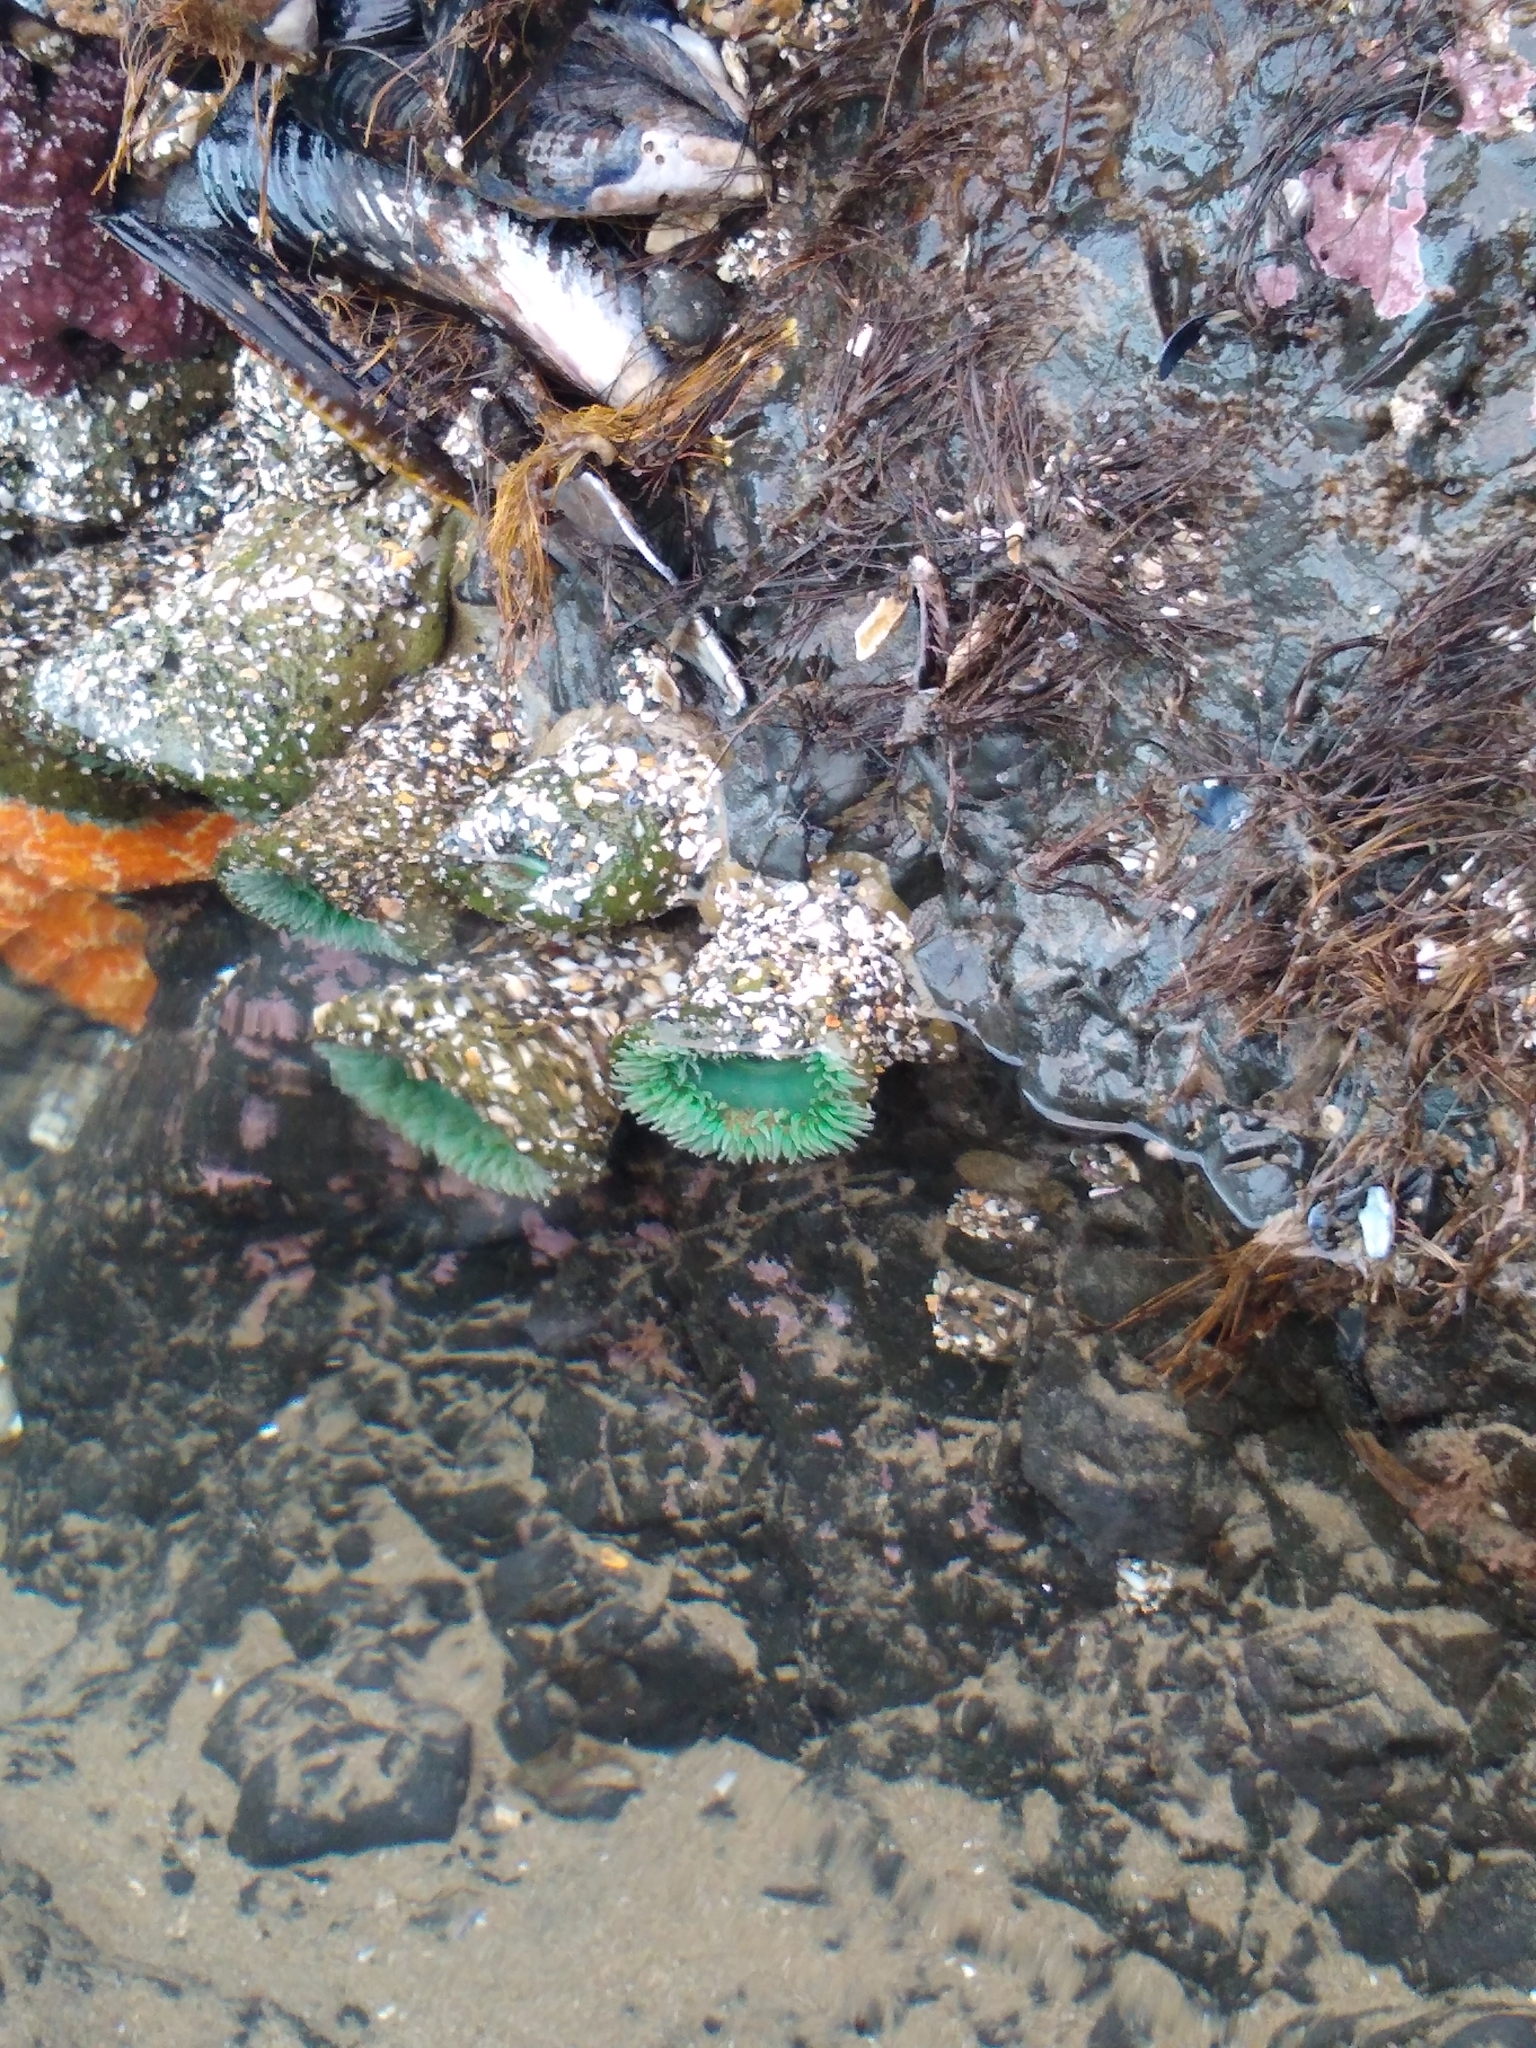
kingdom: Animalia
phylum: Cnidaria
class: Anthozoa
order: Actiniaria
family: Actiniidae
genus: Anthopleura
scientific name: Anthopleura xanthogrammica
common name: Giant green anemone
